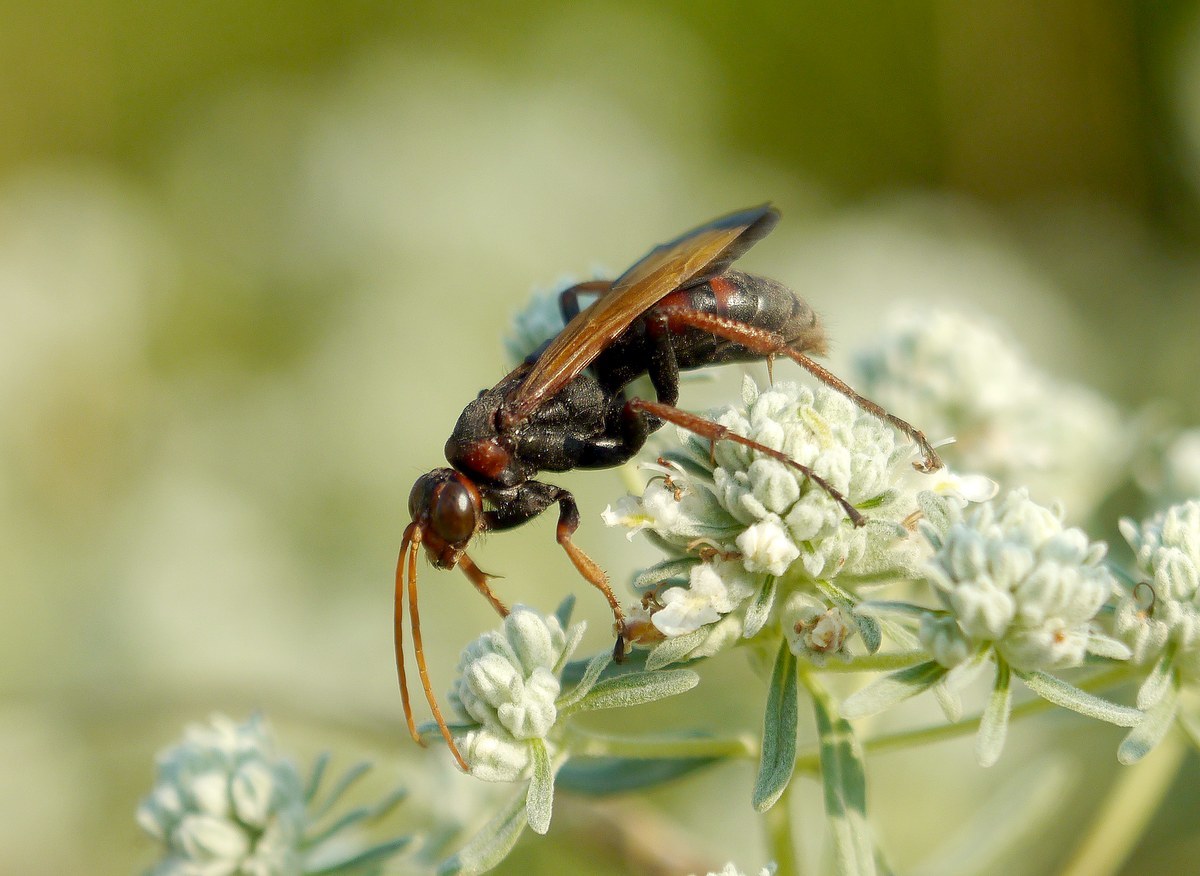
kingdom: Animalia
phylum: Arthropoda
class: Insecta
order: Hymenoptera
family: Pompilidae
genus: Cryptocheilus
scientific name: Cryptocheilus rubellus
